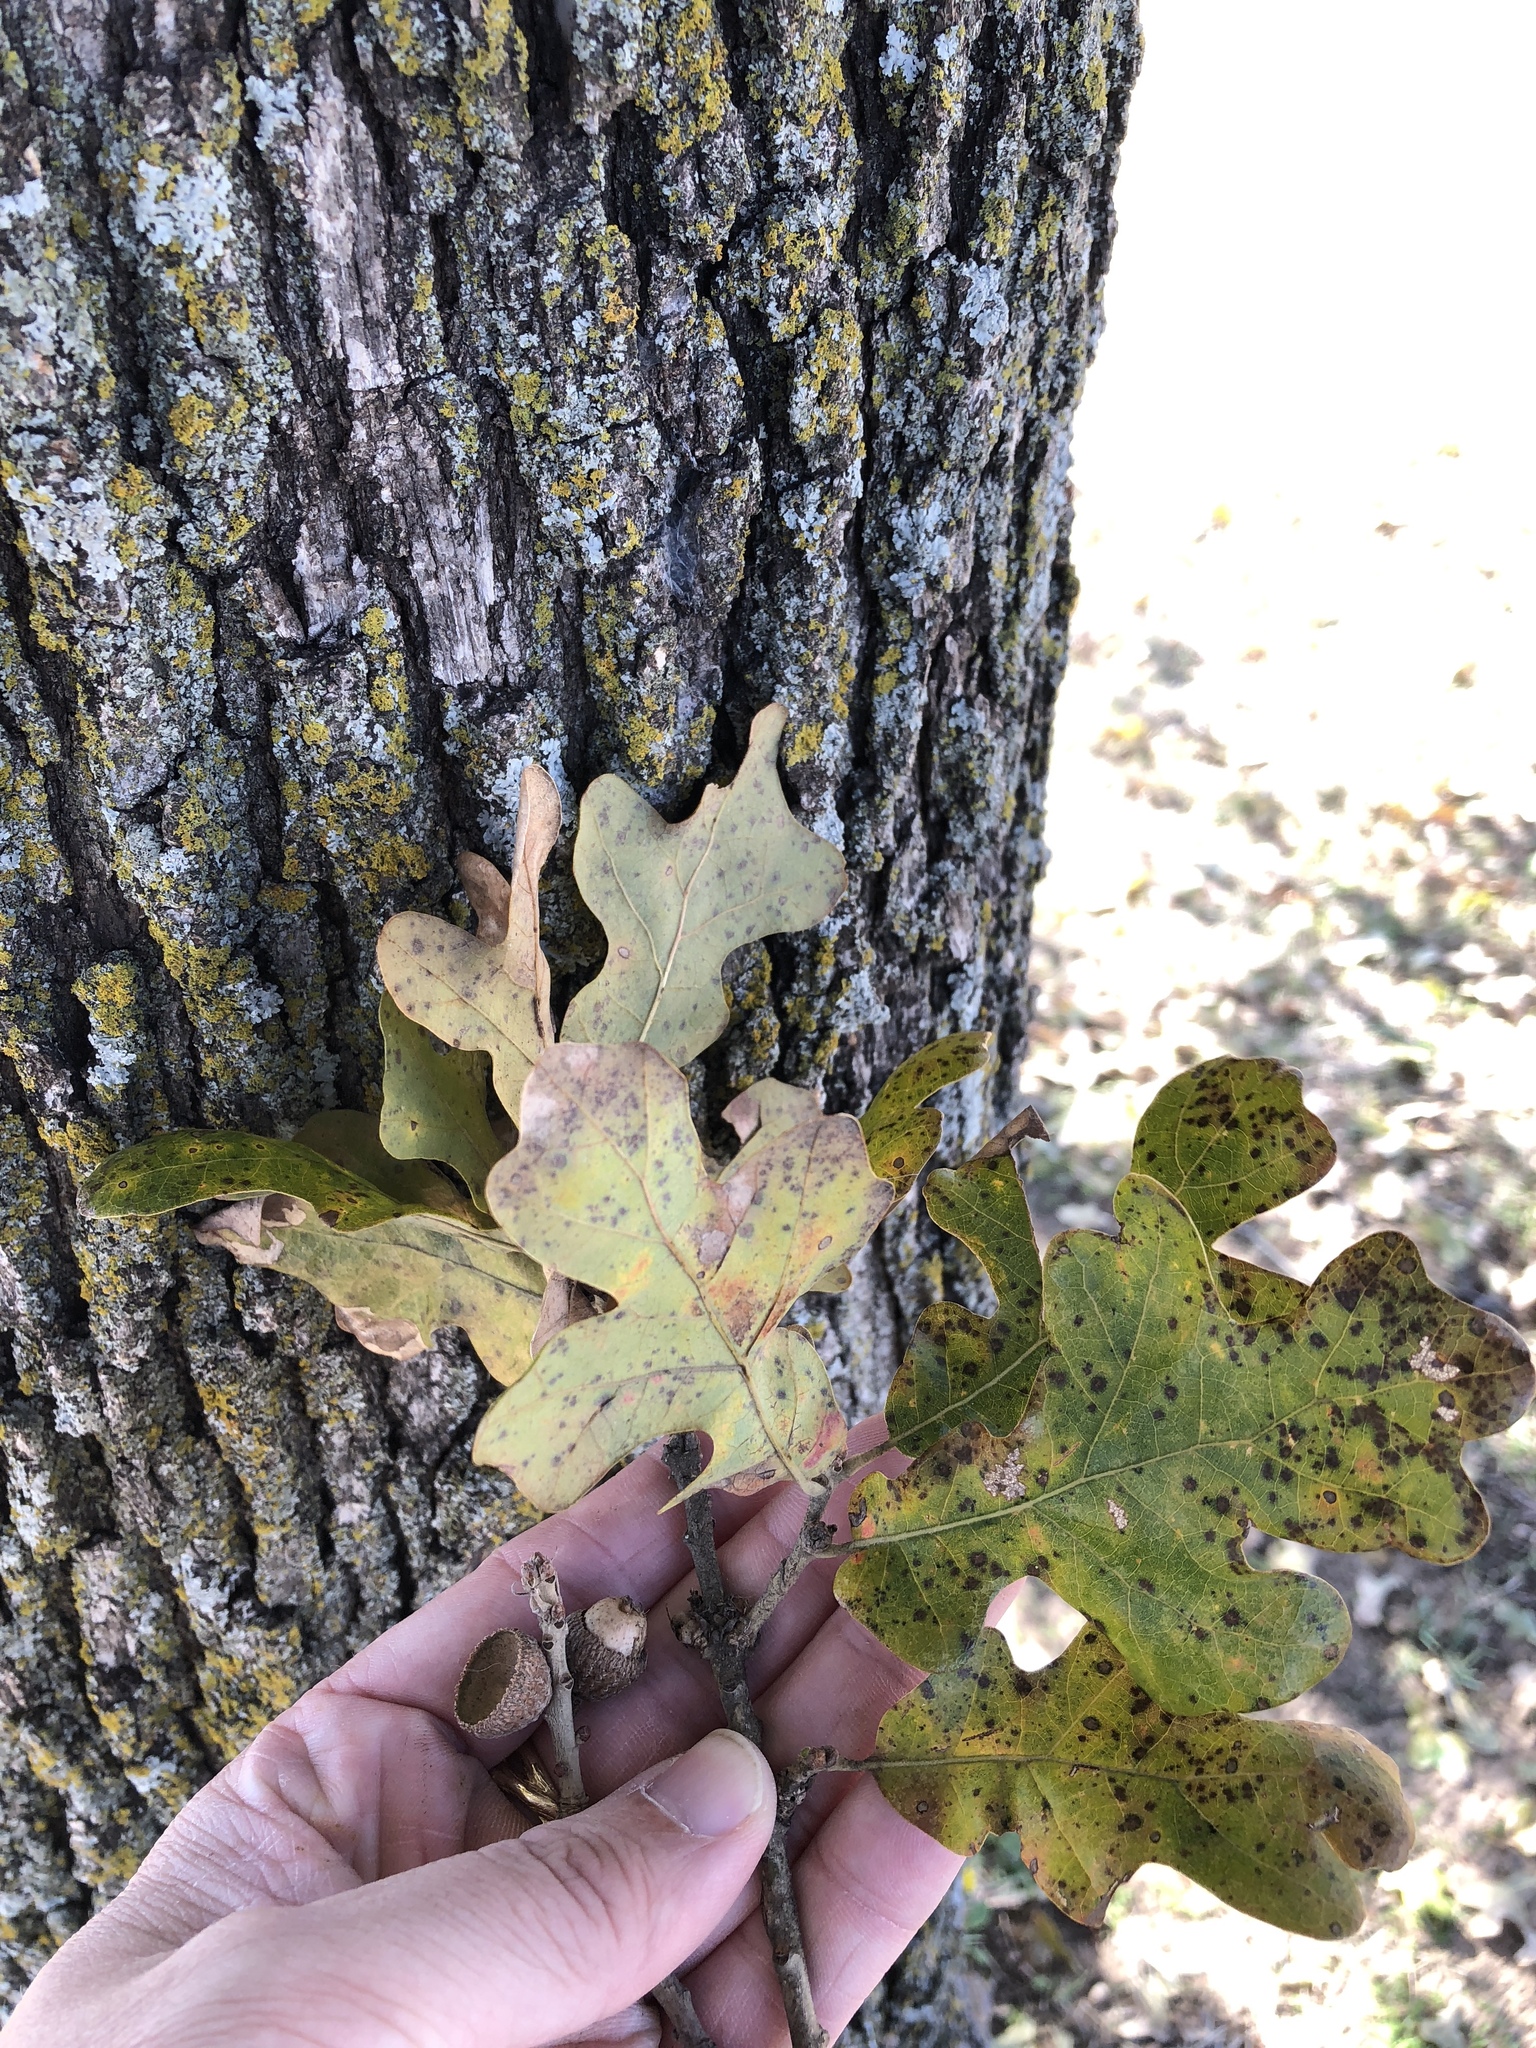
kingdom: Plantae
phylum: Tracheophyta
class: Magnoliopsida
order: Fagales
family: Fagaceae
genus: Quercus
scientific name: Quercus stellata
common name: Post oak
